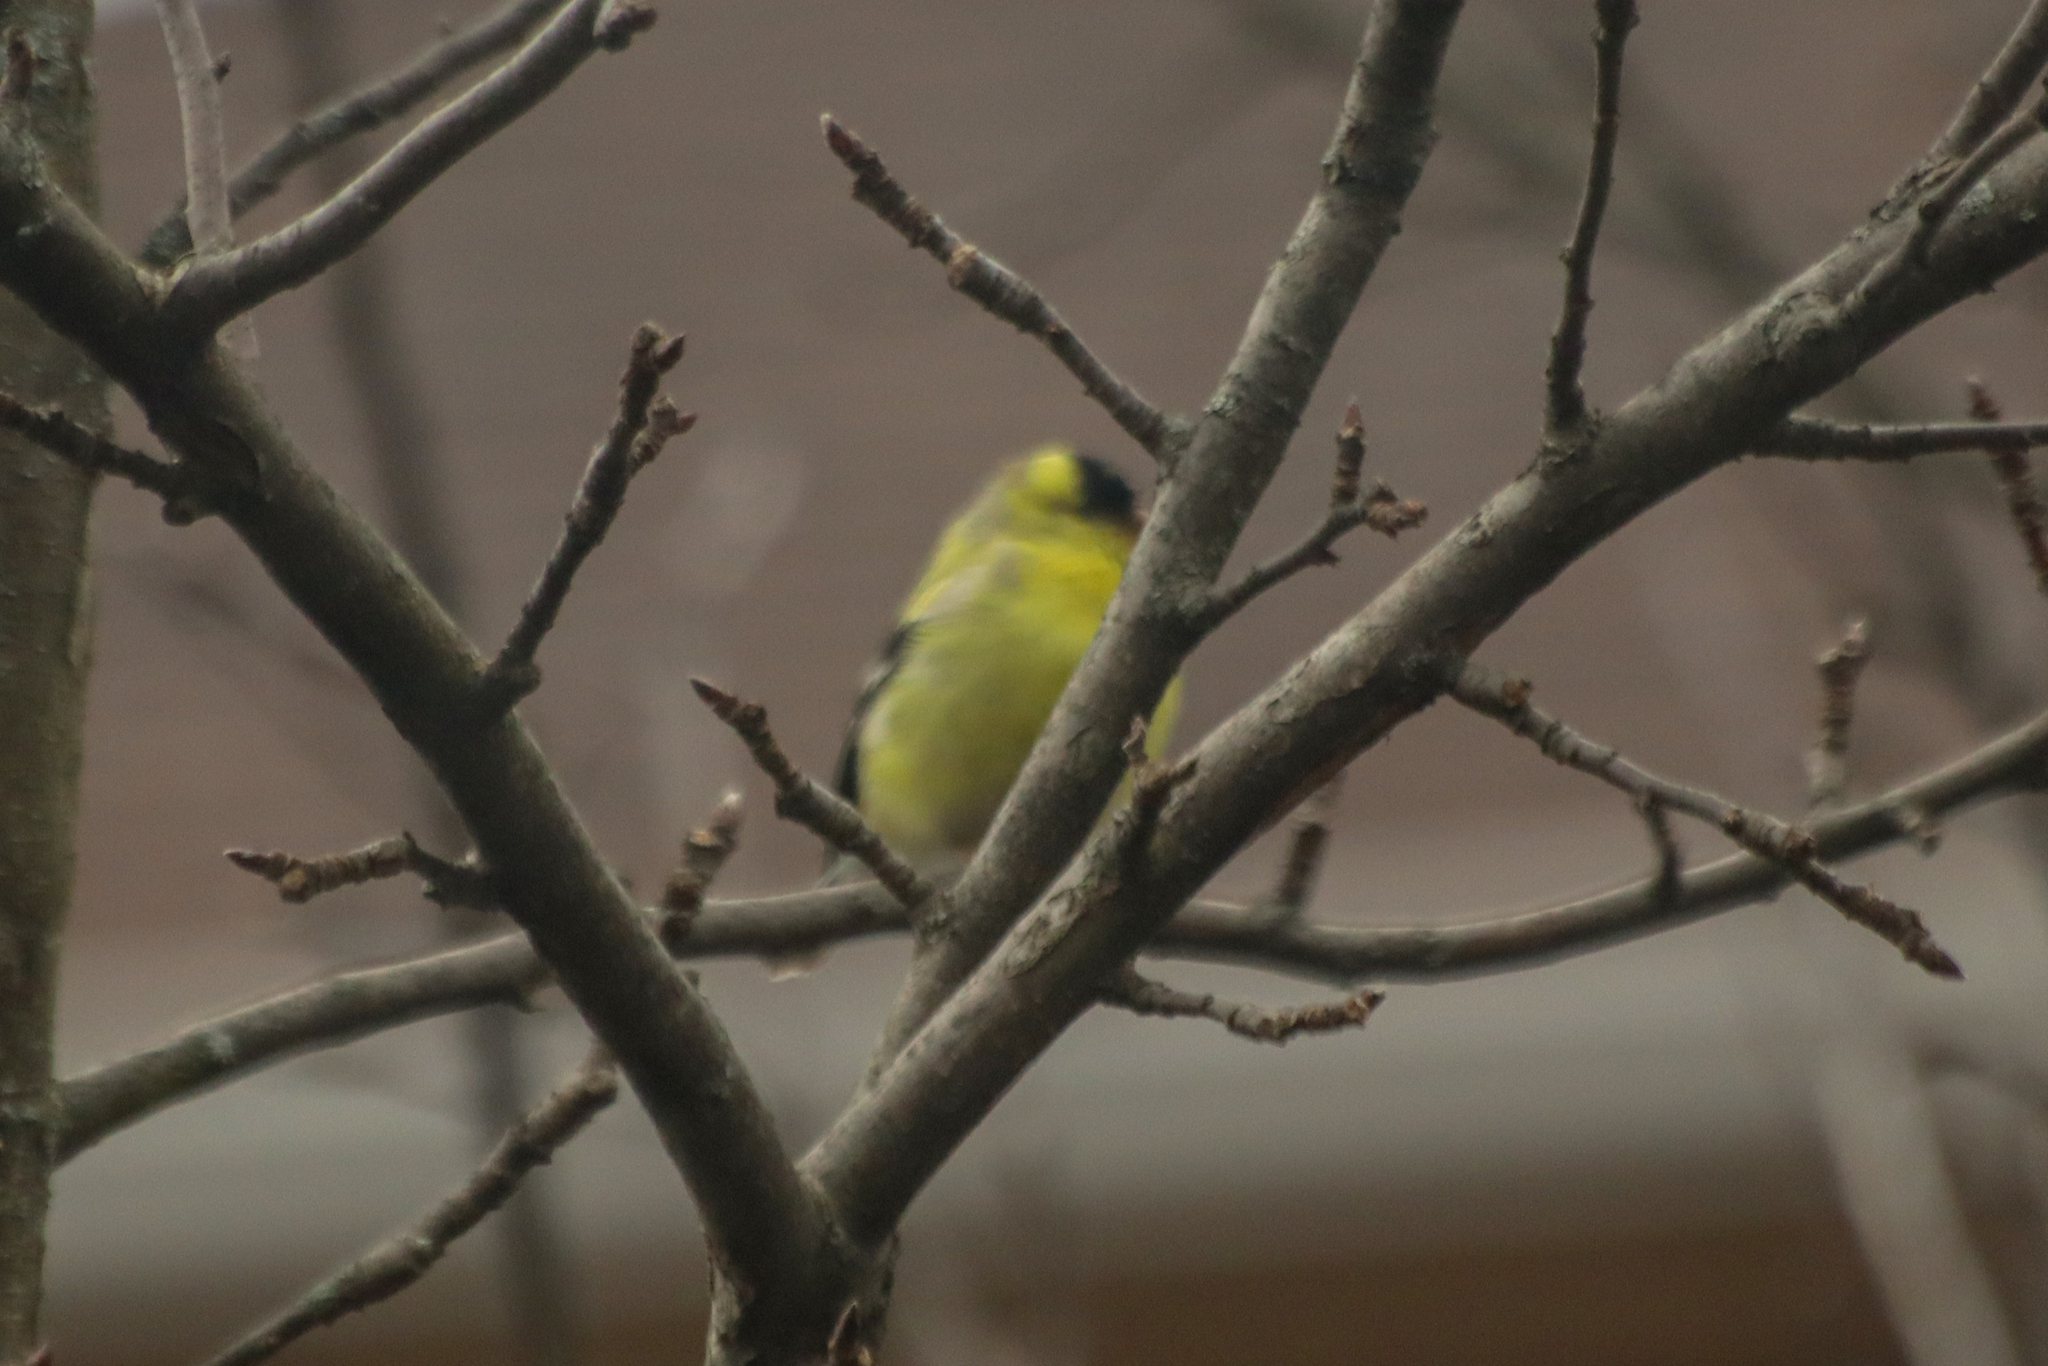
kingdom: Animalia
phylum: Chordata
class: Aves
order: Passeriformes
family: Fringillidae
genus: Spinus
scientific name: Spinus tristis
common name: American goldfinch
